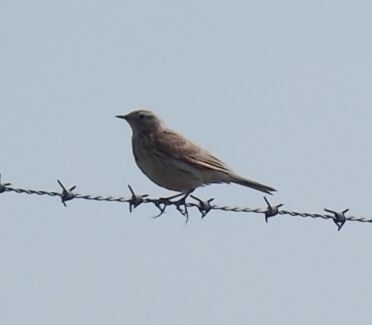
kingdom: Animalia
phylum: Chordata
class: Aves
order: Passeriformes
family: Motacillidae
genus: Anthus
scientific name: Anthus pratensis
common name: Meadow pipit
